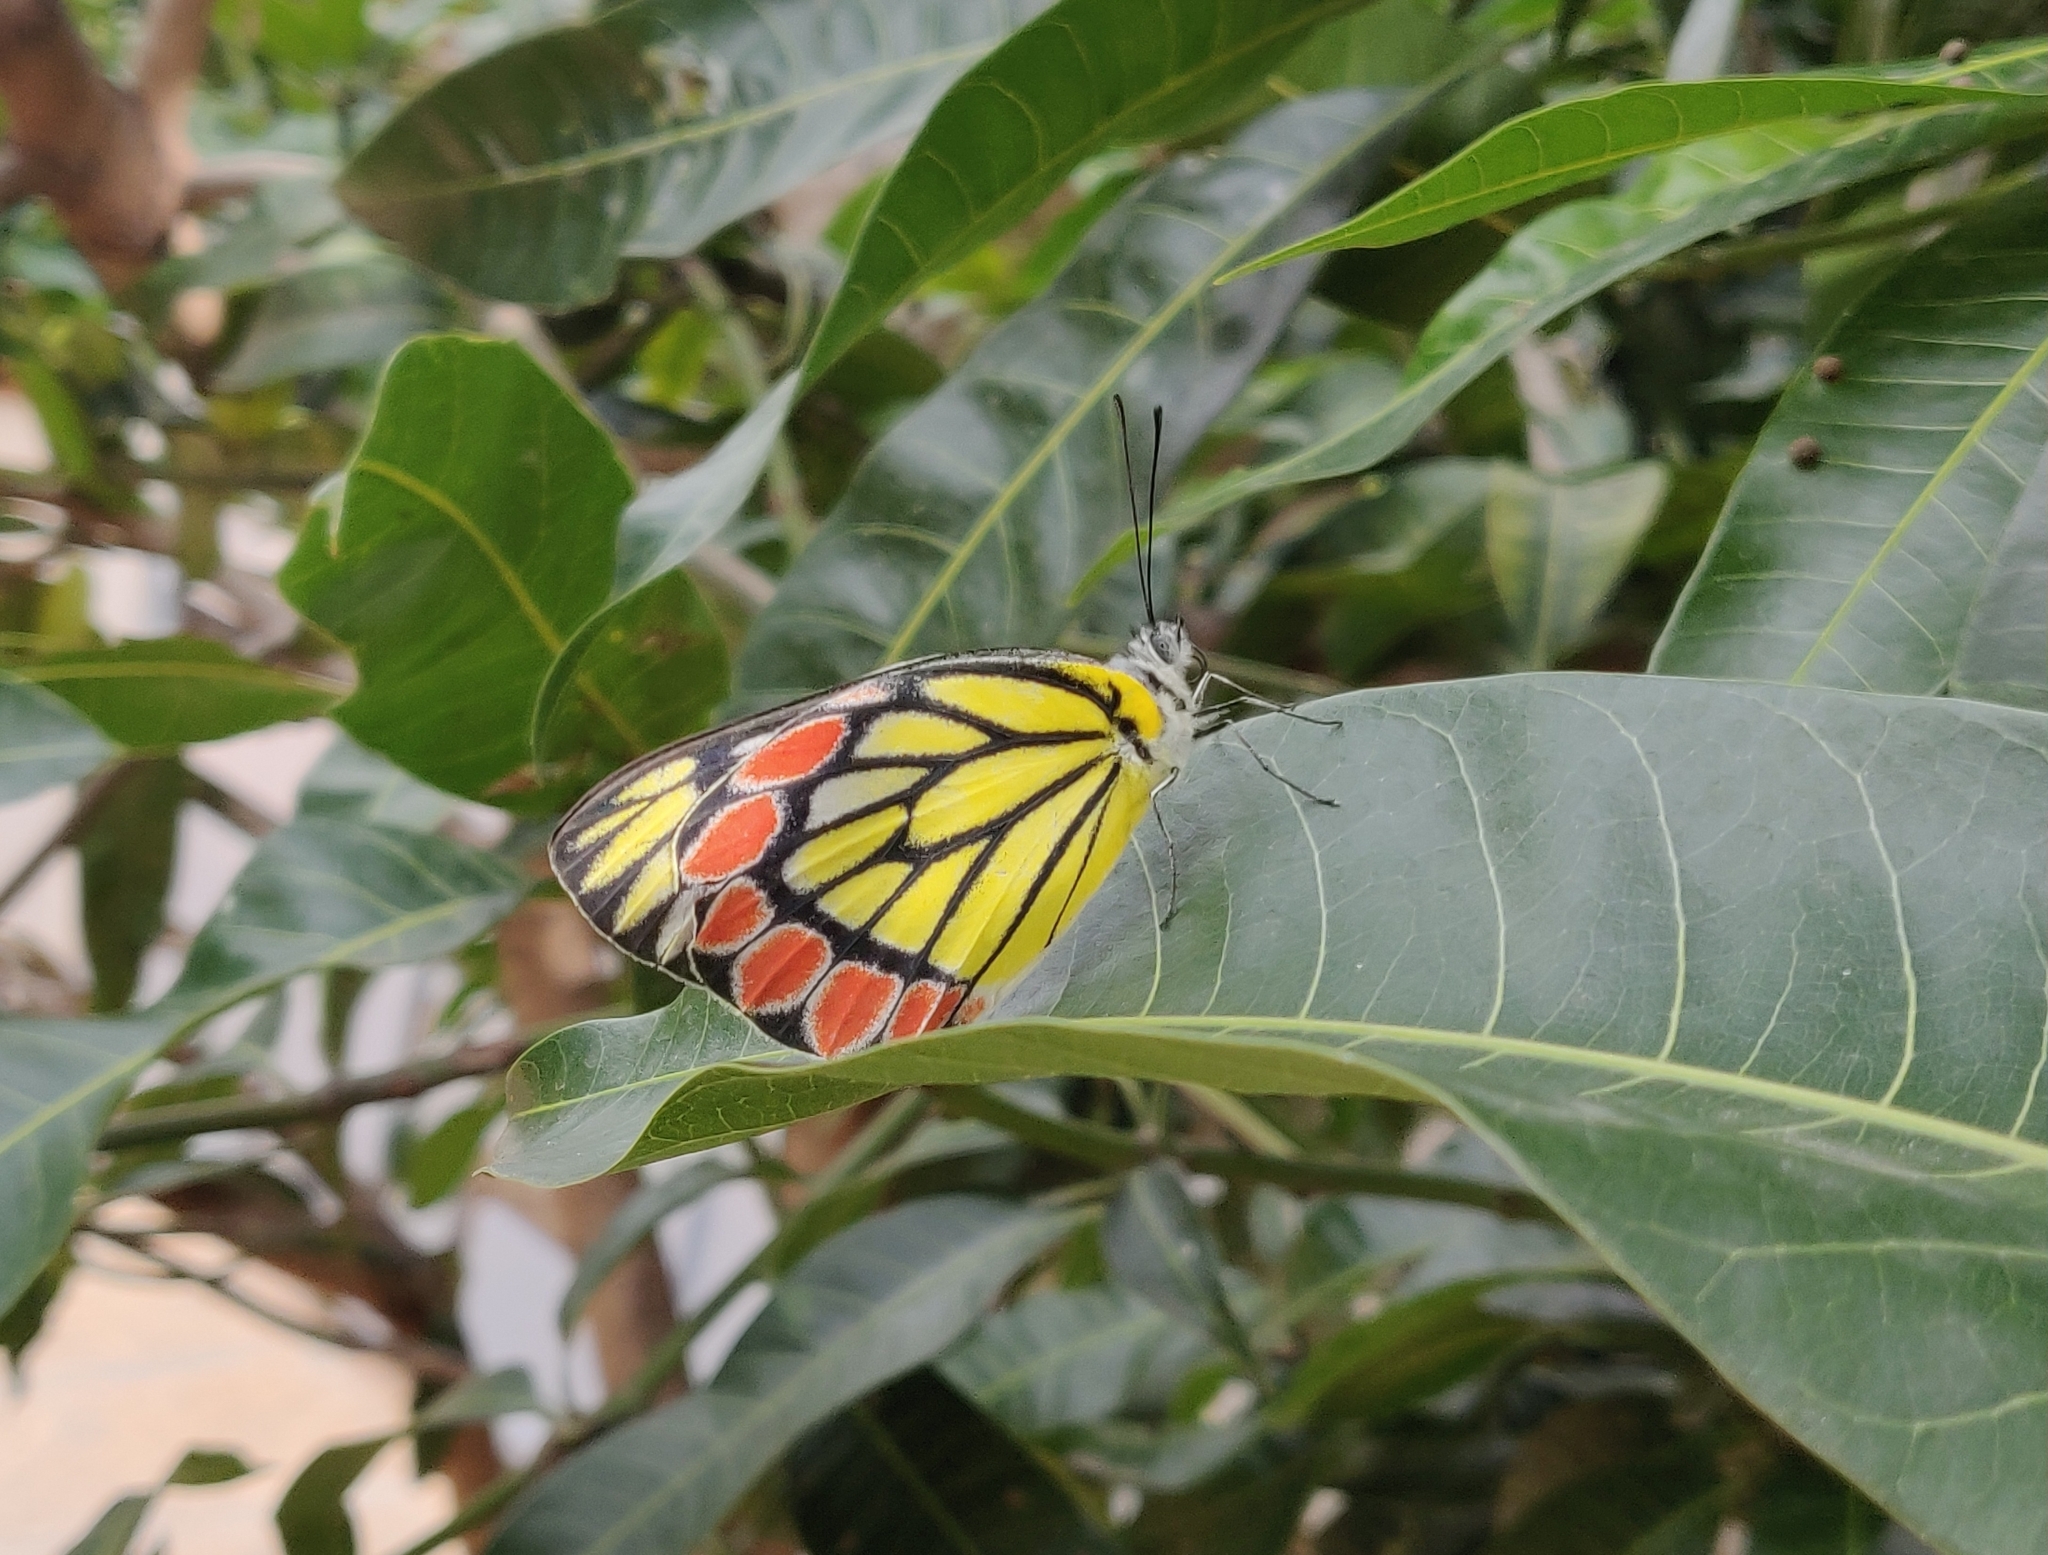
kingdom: Animalia
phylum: Arthropoda
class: Insecta
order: Lepidoptera
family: Pieridae
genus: Delias
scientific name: Delias eucharis
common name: Common jezebel
